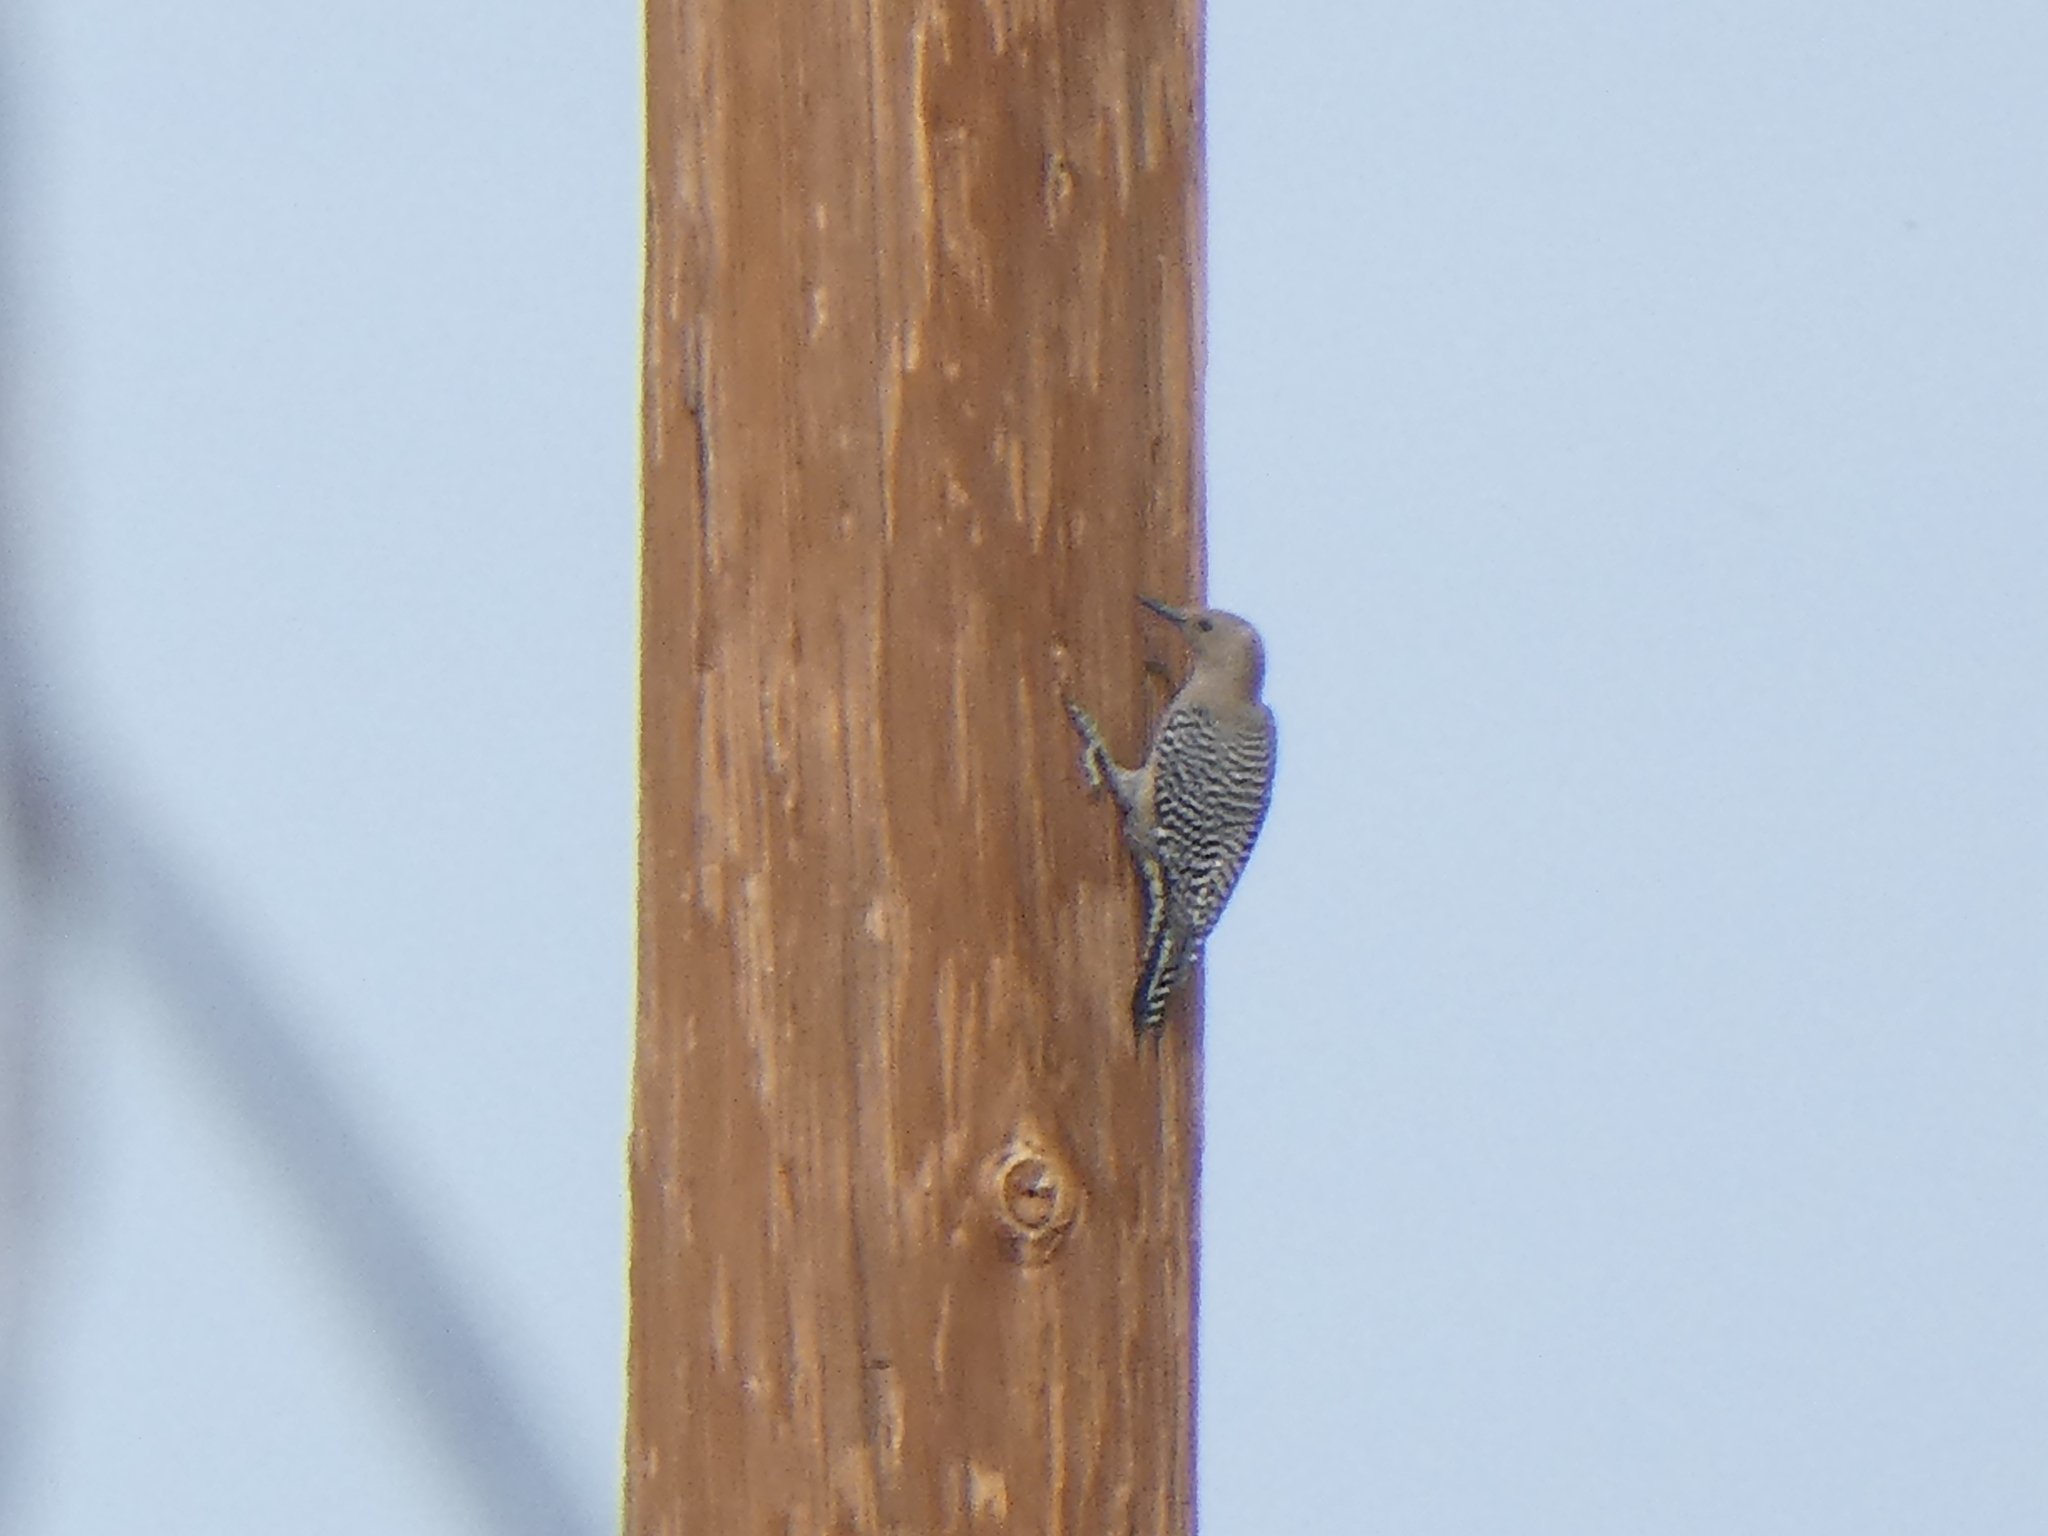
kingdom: Animalia
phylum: Chordata
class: Aves
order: Piciformes
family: Picidae
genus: Melanerpes
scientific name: Melanerpes uropygialis
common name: Gila woodpecker
